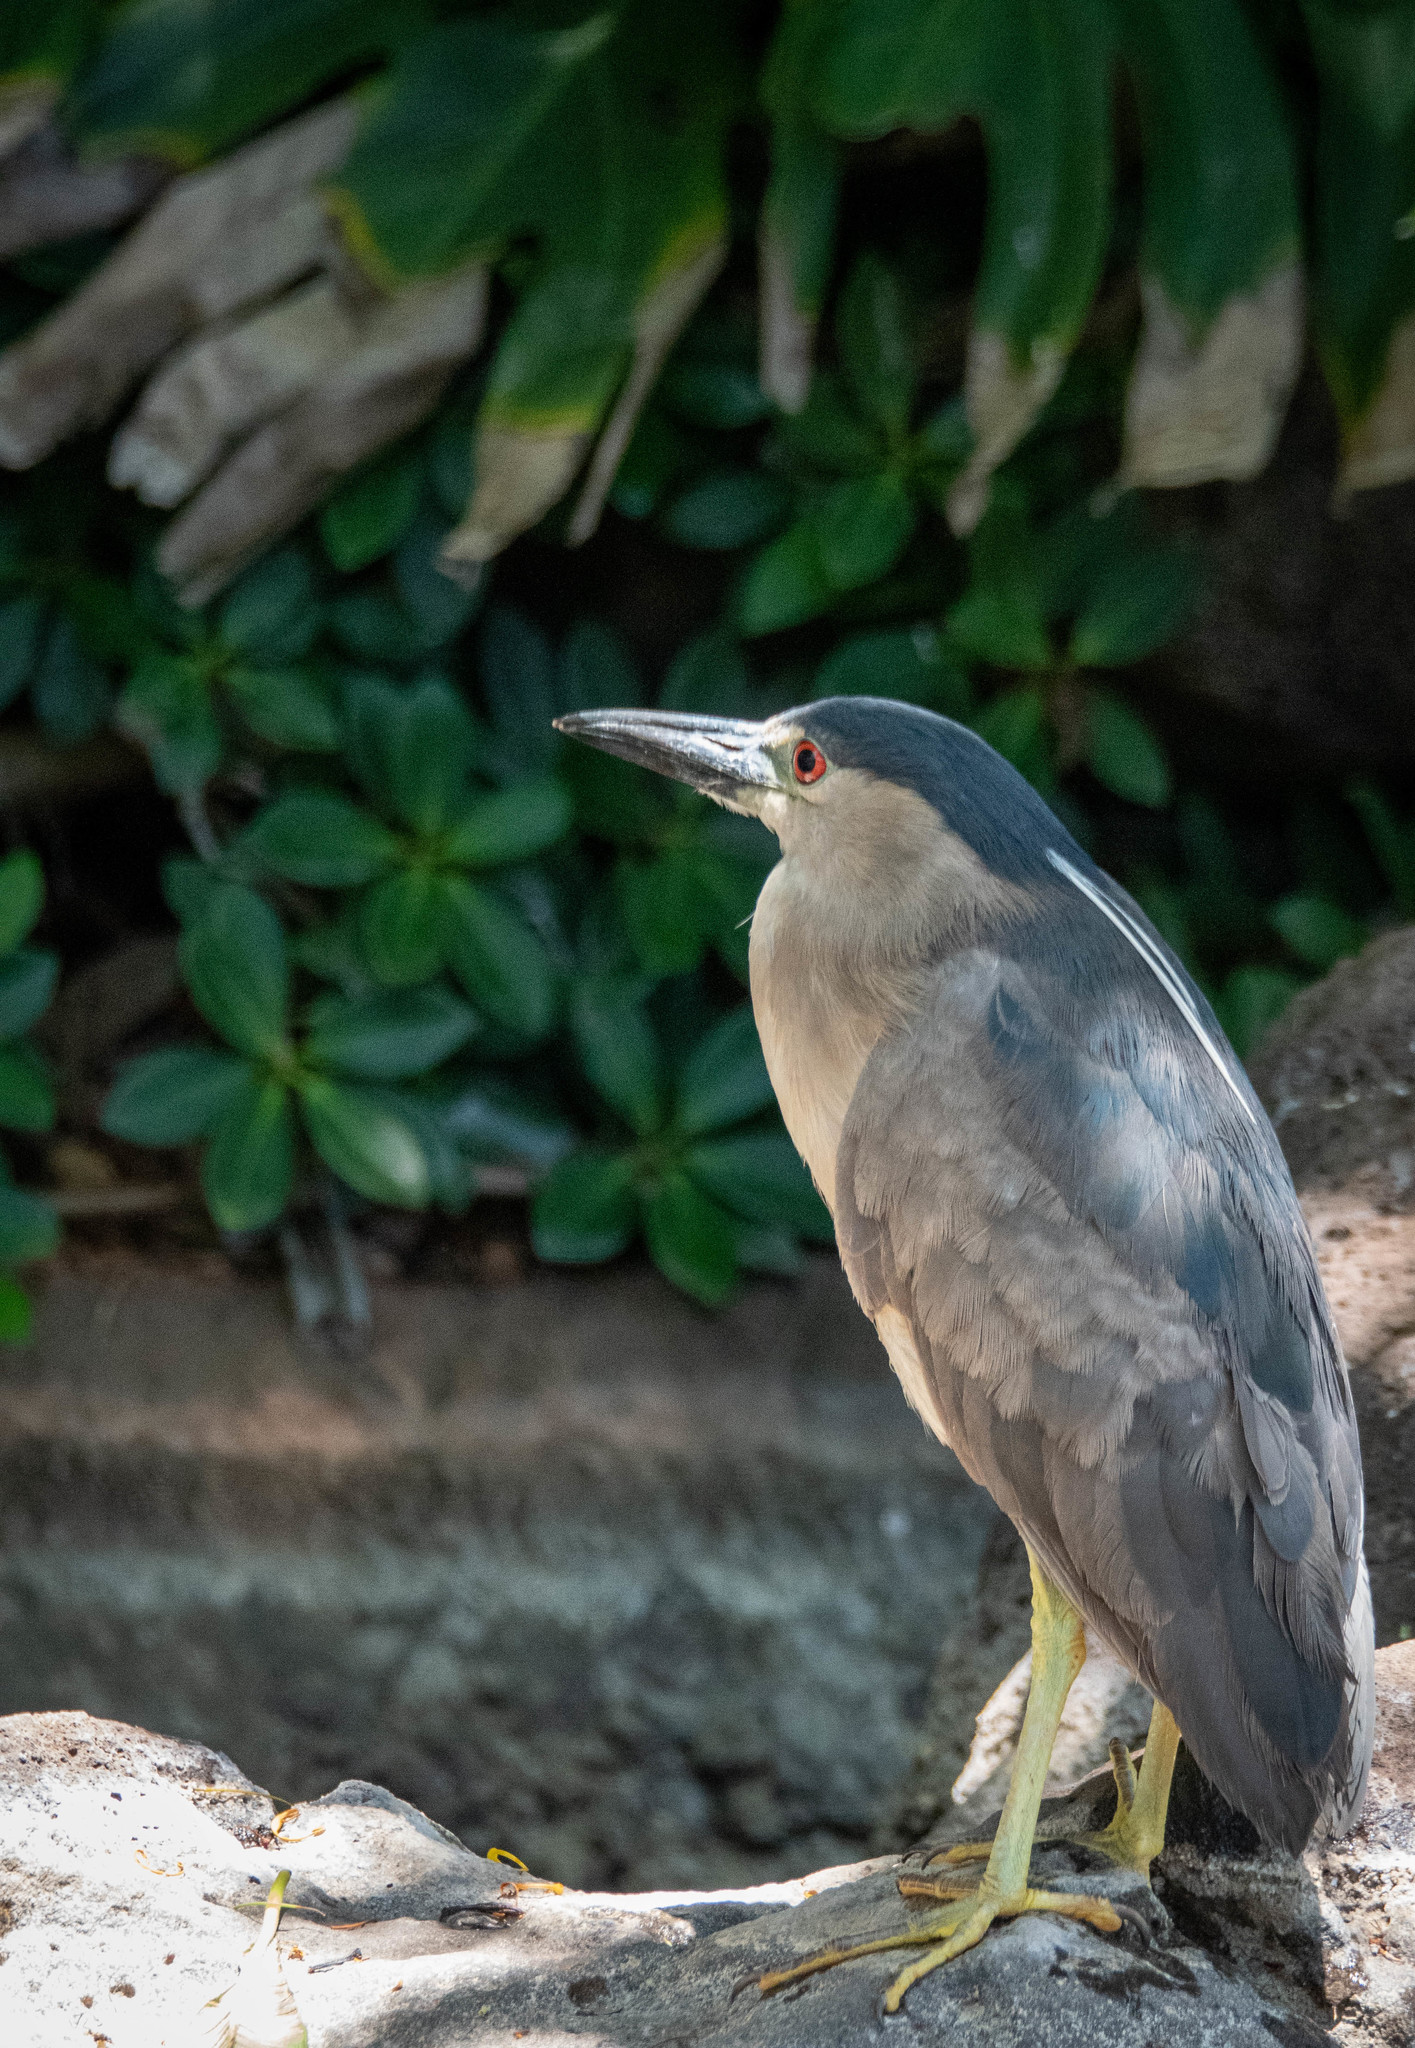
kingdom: Animalia
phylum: Chordata
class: Aves
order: Pelecaniformes
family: Ardeidae
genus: Nycticorax
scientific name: Nycticorax nycticorax
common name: Black-crowned night heron
